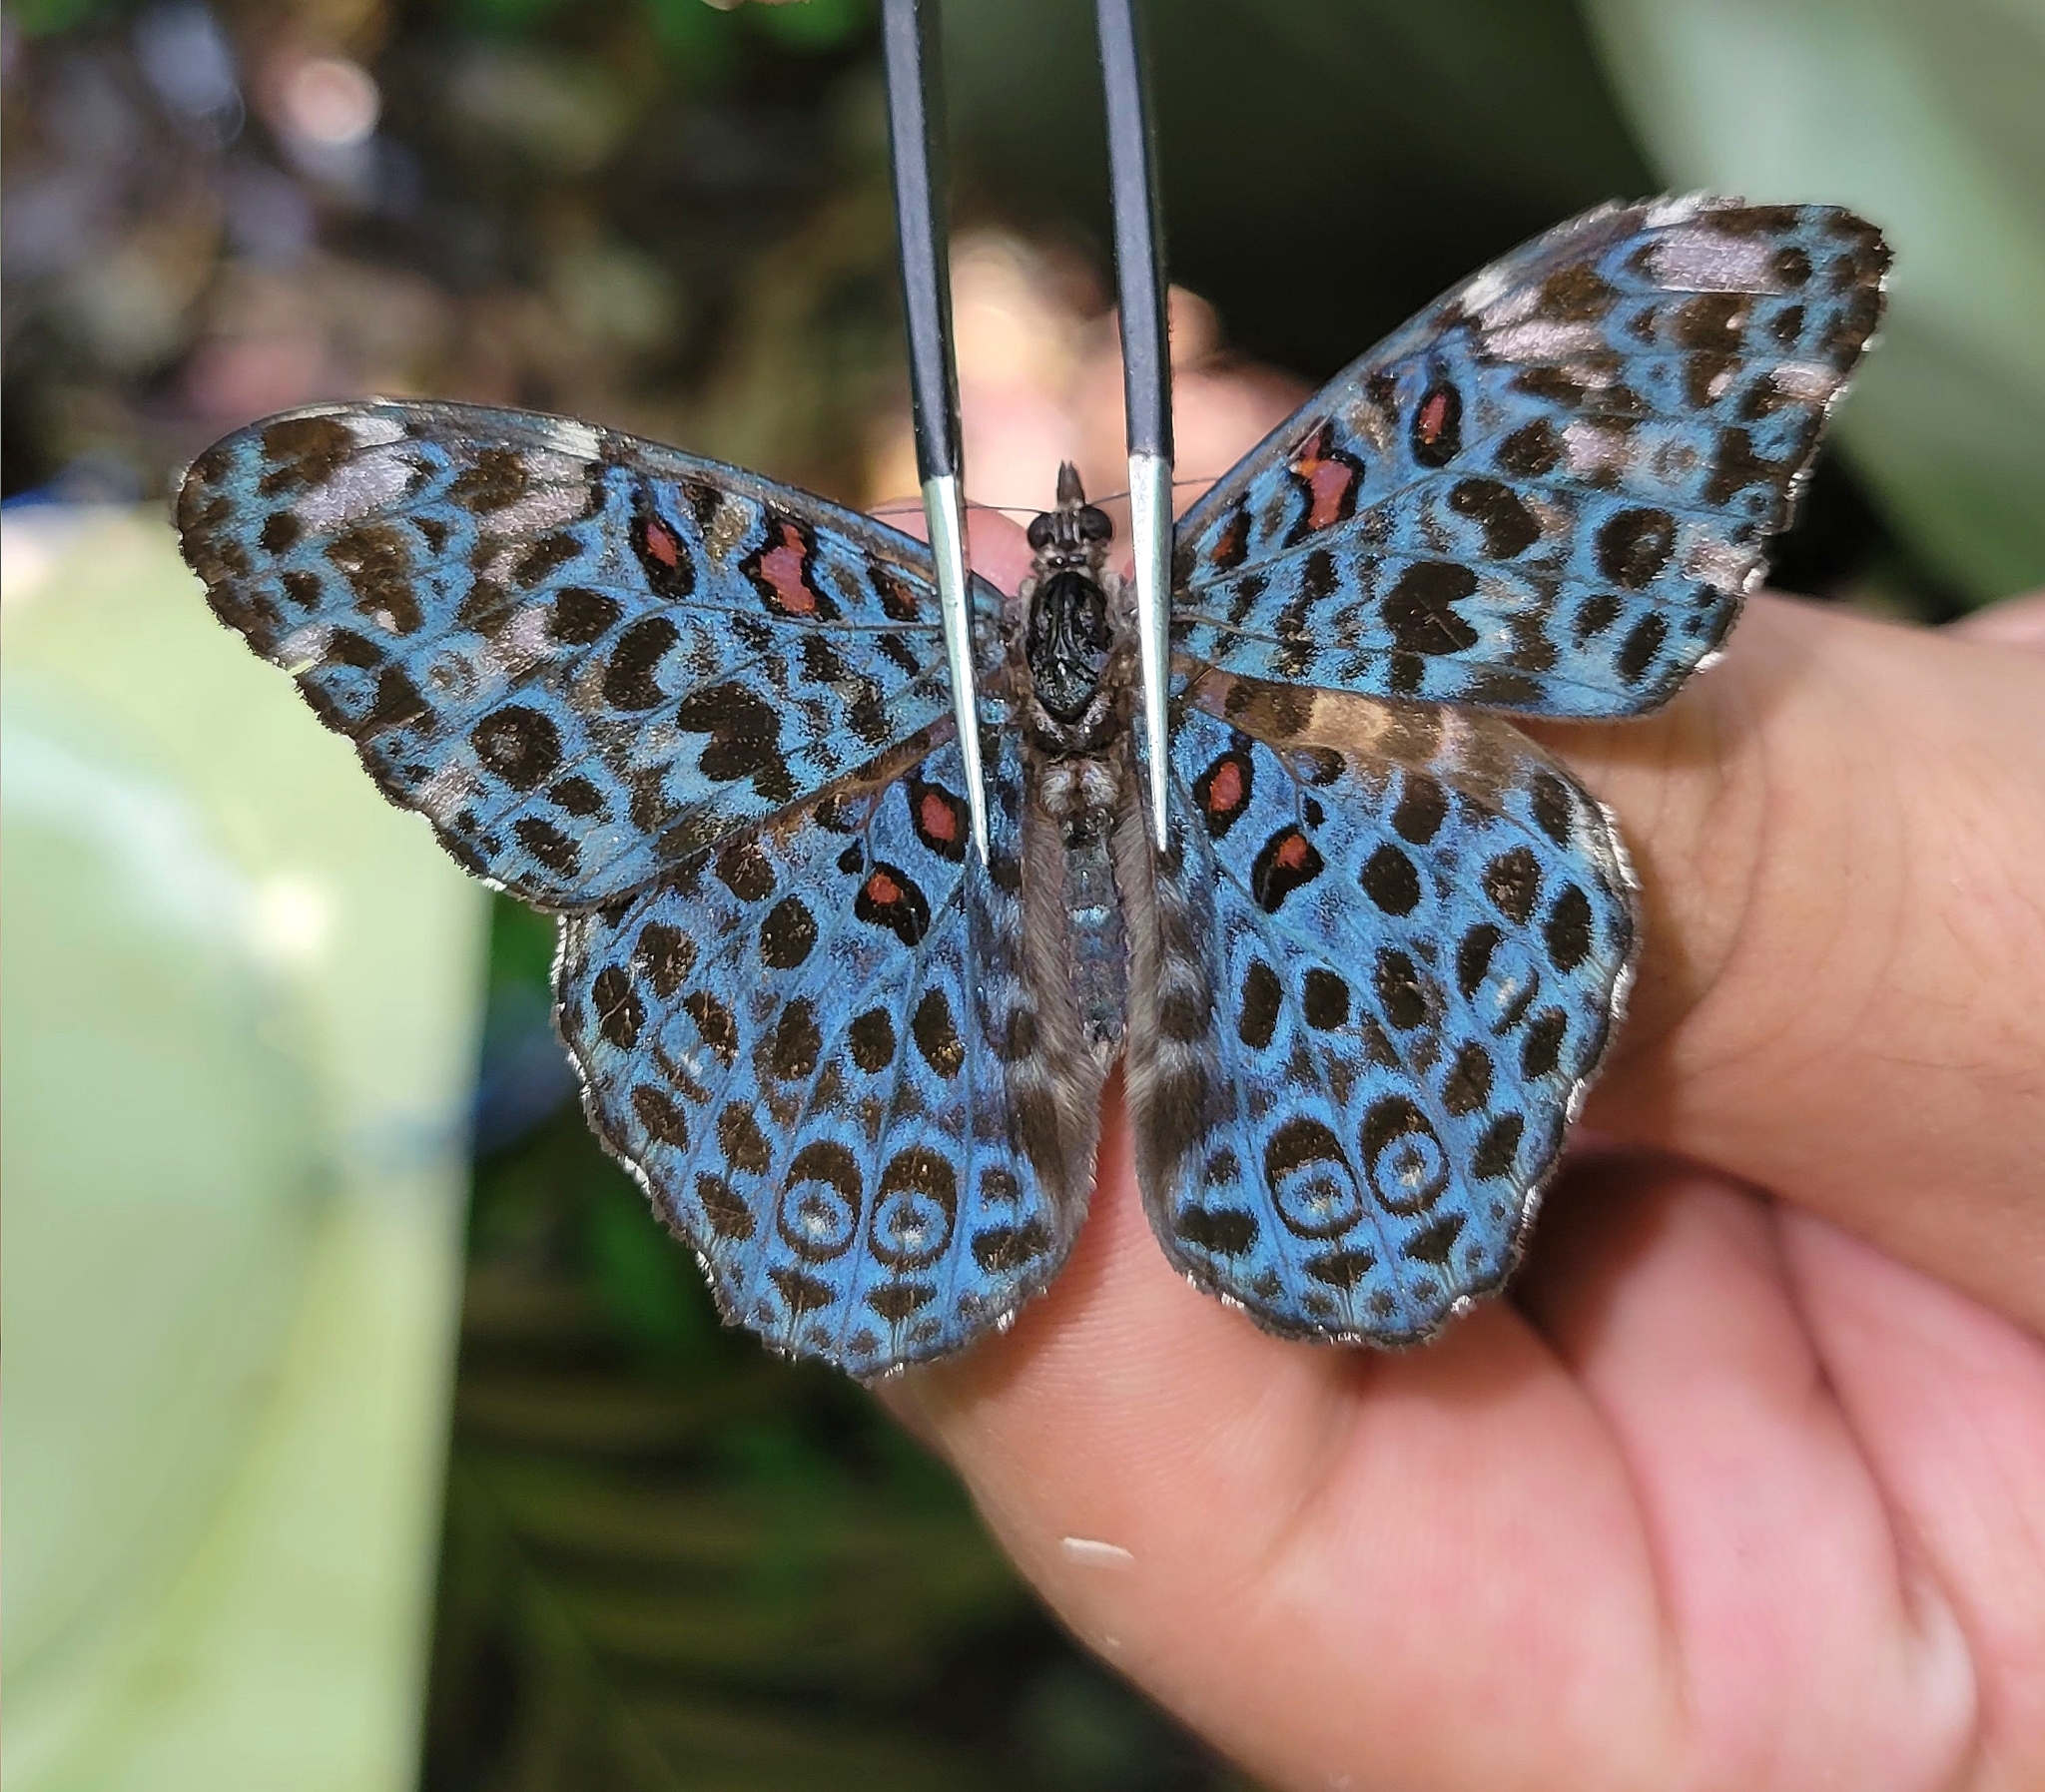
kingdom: Animalia
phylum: Arthropoda
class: Insecta
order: Lepidoptera
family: Nymphalidae
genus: Hamadryas
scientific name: Hamadryas chloe
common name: Amazon cracker
